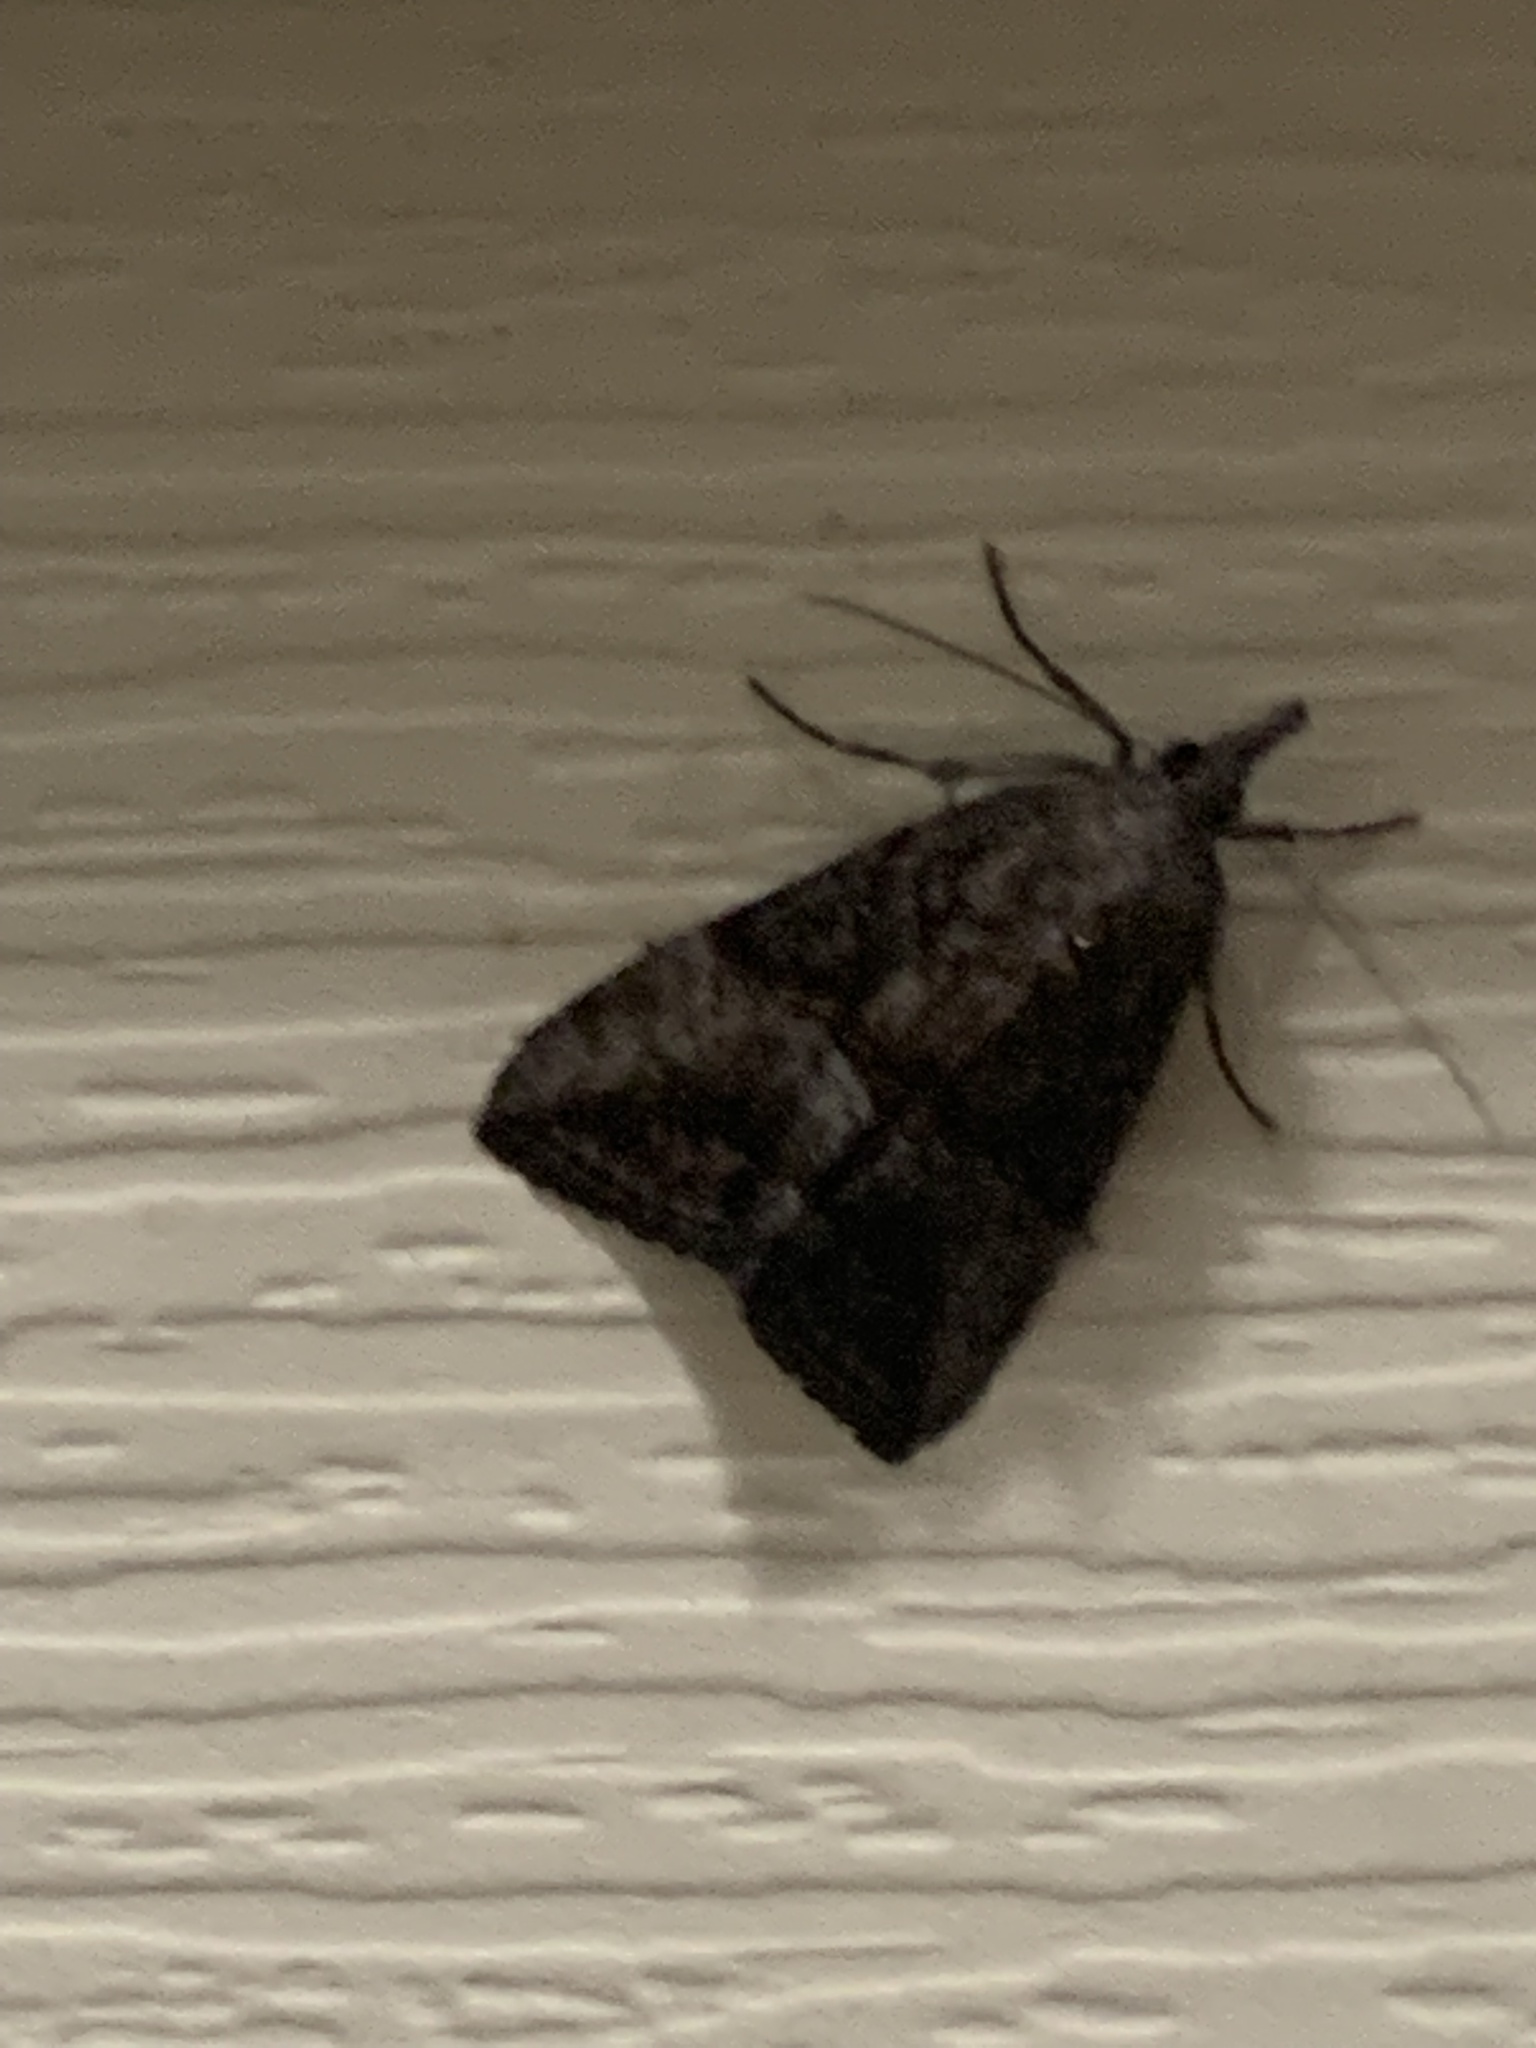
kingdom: Animalia
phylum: Arthropoda
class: Insecta
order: Lepidoptera
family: Erebidae
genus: Hypena
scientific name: Hypena scabra
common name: Green cloverworm
